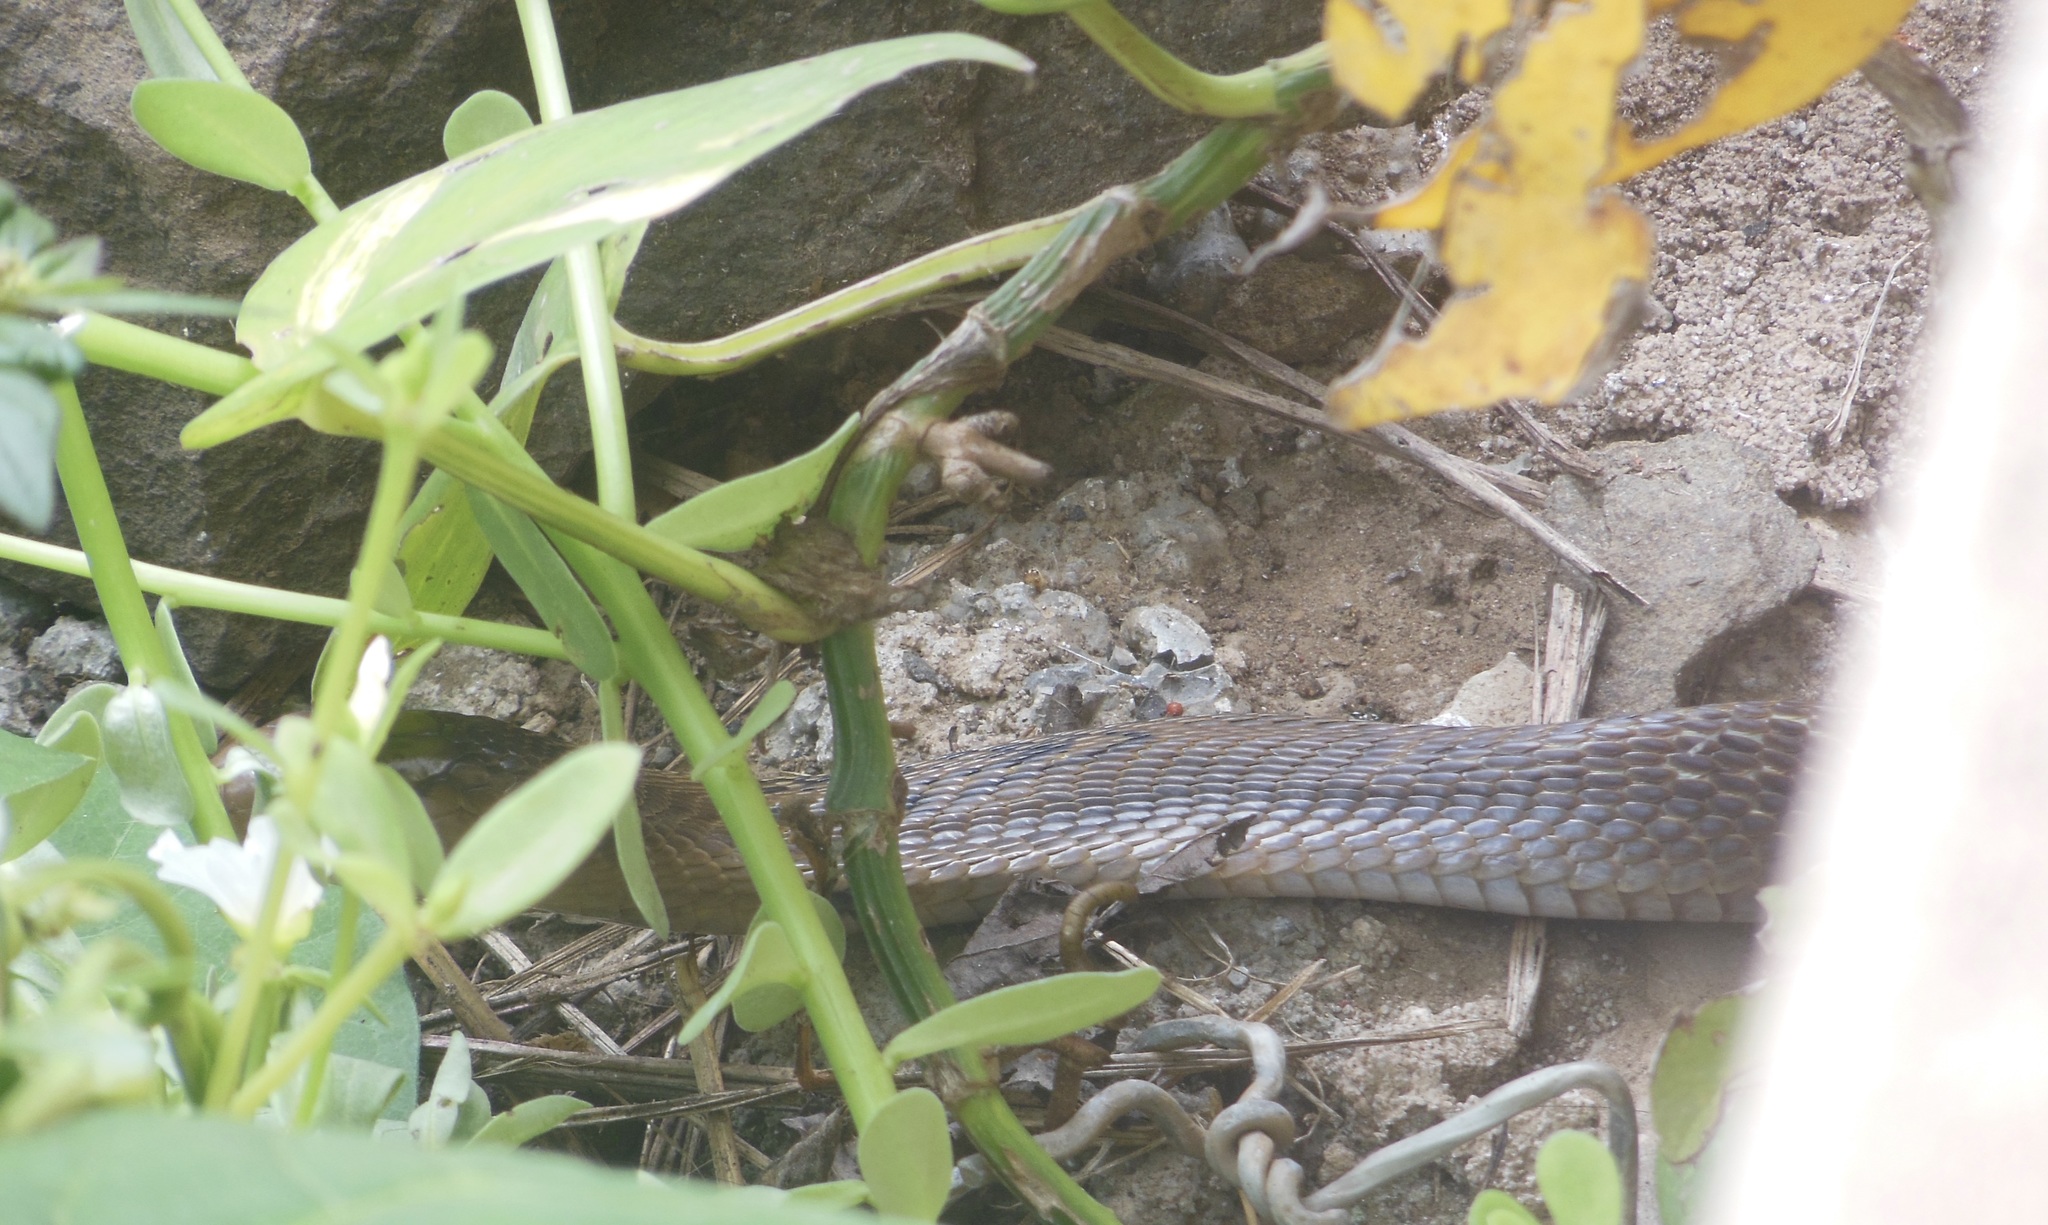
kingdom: Animalia
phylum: Chordata
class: Squamata
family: Elapidae
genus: Naja
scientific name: Naja naja
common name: Indian cobra
